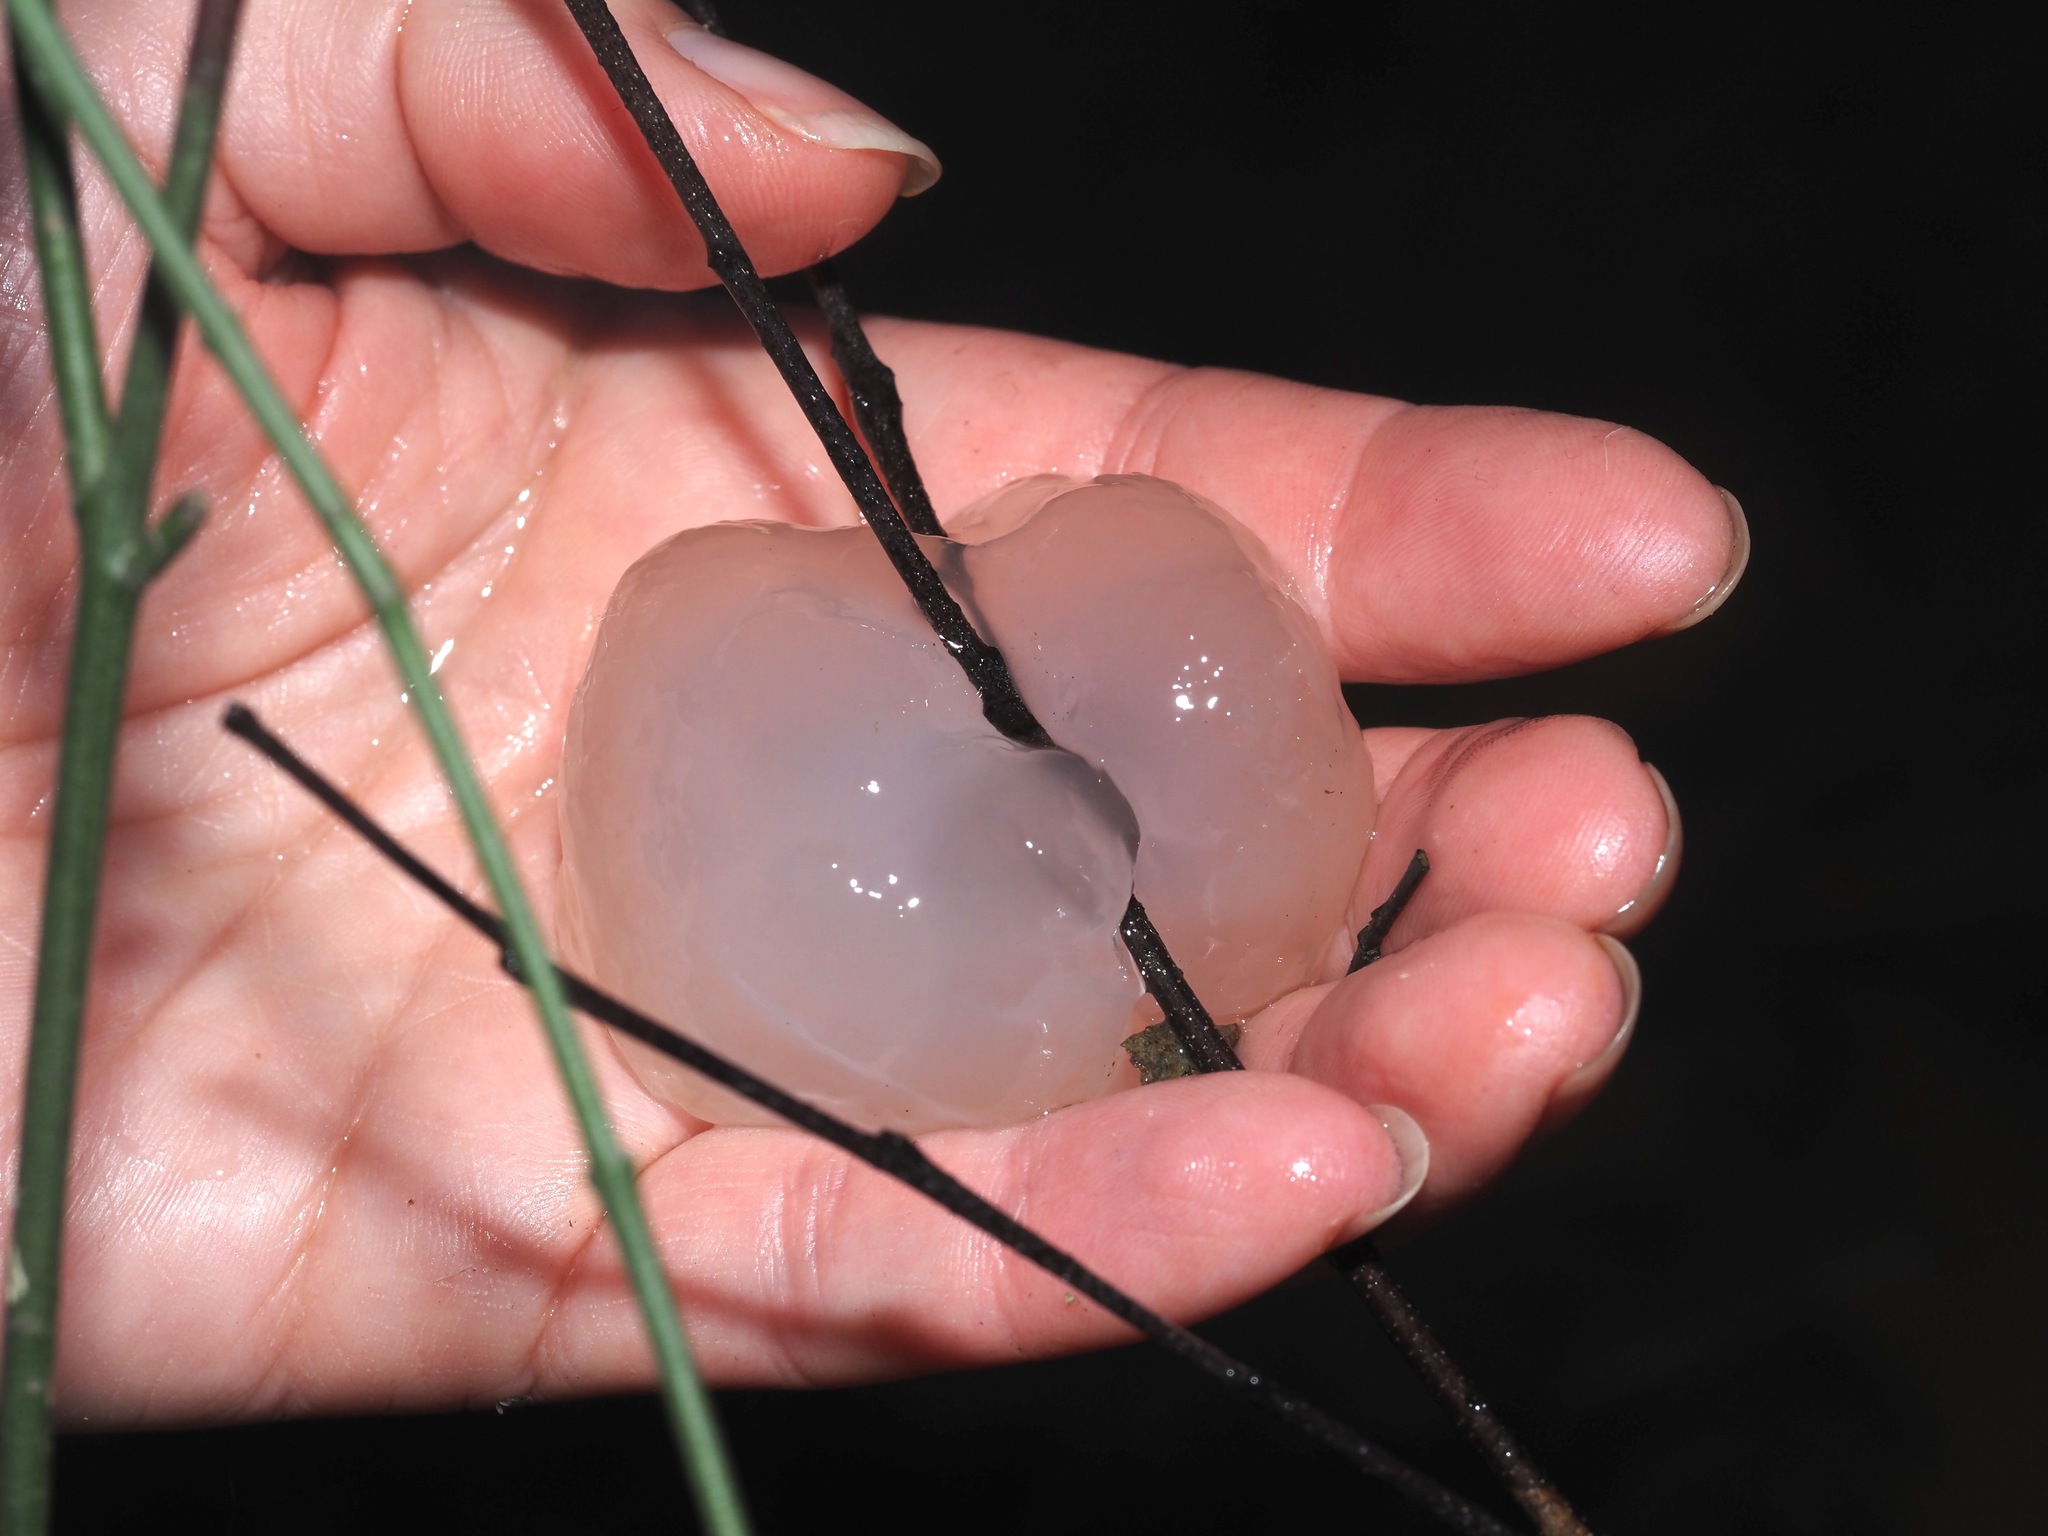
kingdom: Animalia
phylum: Chordata
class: Amphibia
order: Caudata
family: Ambystomatidae
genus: Ambystoma
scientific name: Ambystoma maculatum
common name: Spotted salamander
